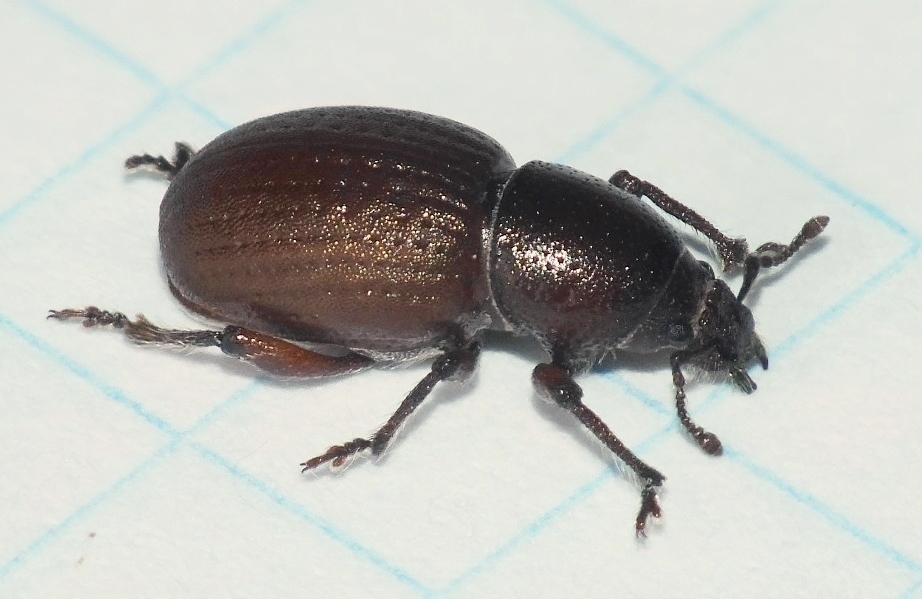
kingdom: Animalia
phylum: Arthropoda
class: Insecta
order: Coleoptera
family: Curculionidae
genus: Psallidium
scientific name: Psallidium maxillosum
